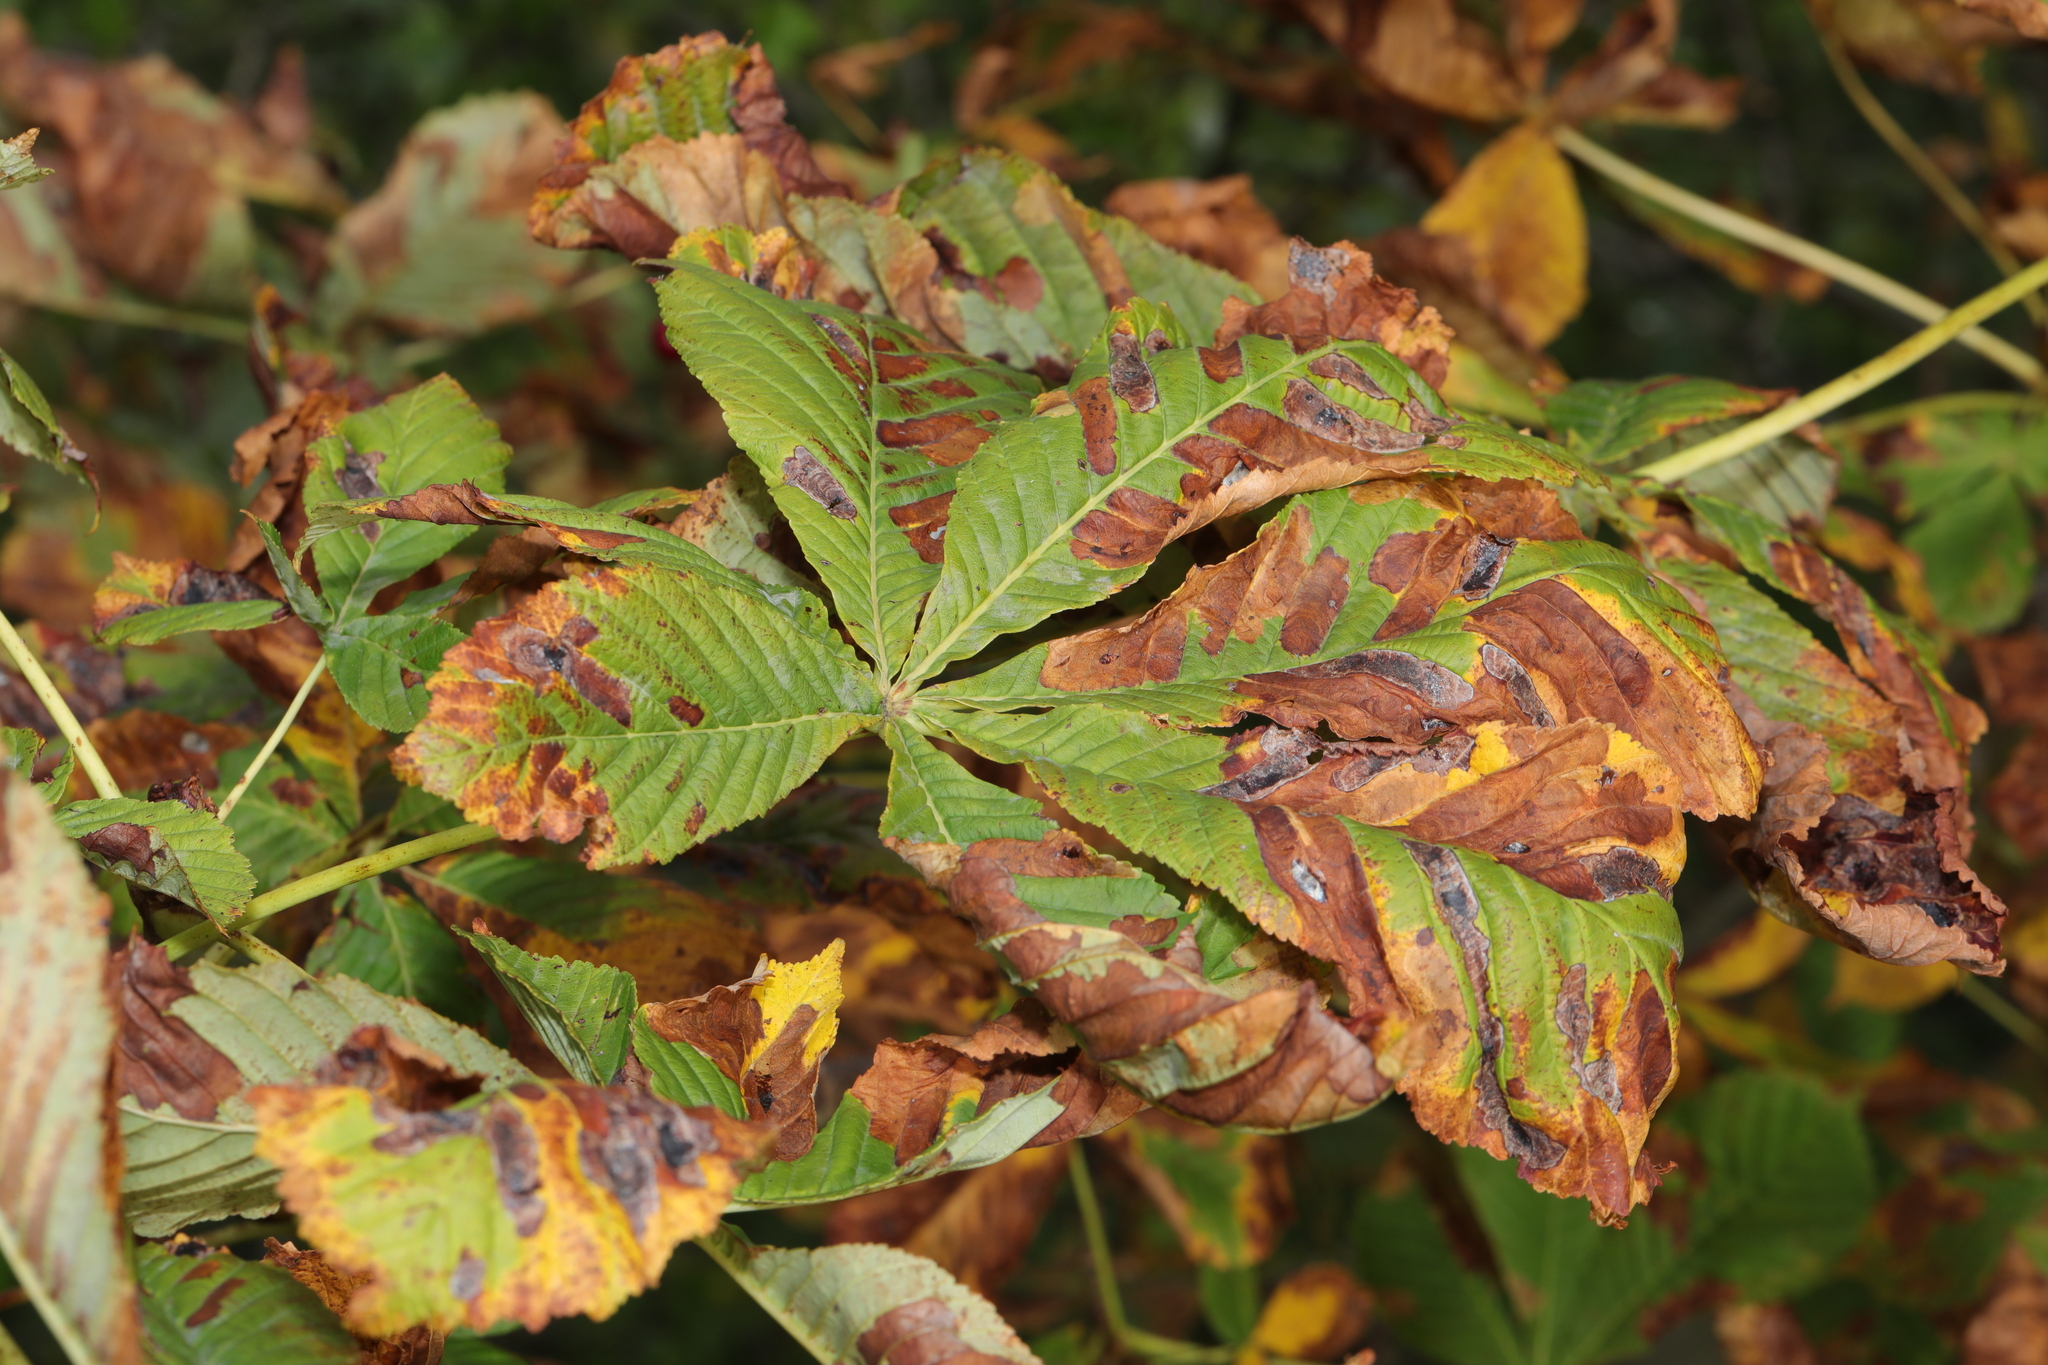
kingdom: Animalia
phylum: Arthropoda
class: Insecta
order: Lepidoptera
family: Gracillariidae
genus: Cameraria
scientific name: Cameraria ohridella
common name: Horse-chestnut leaf-miner
